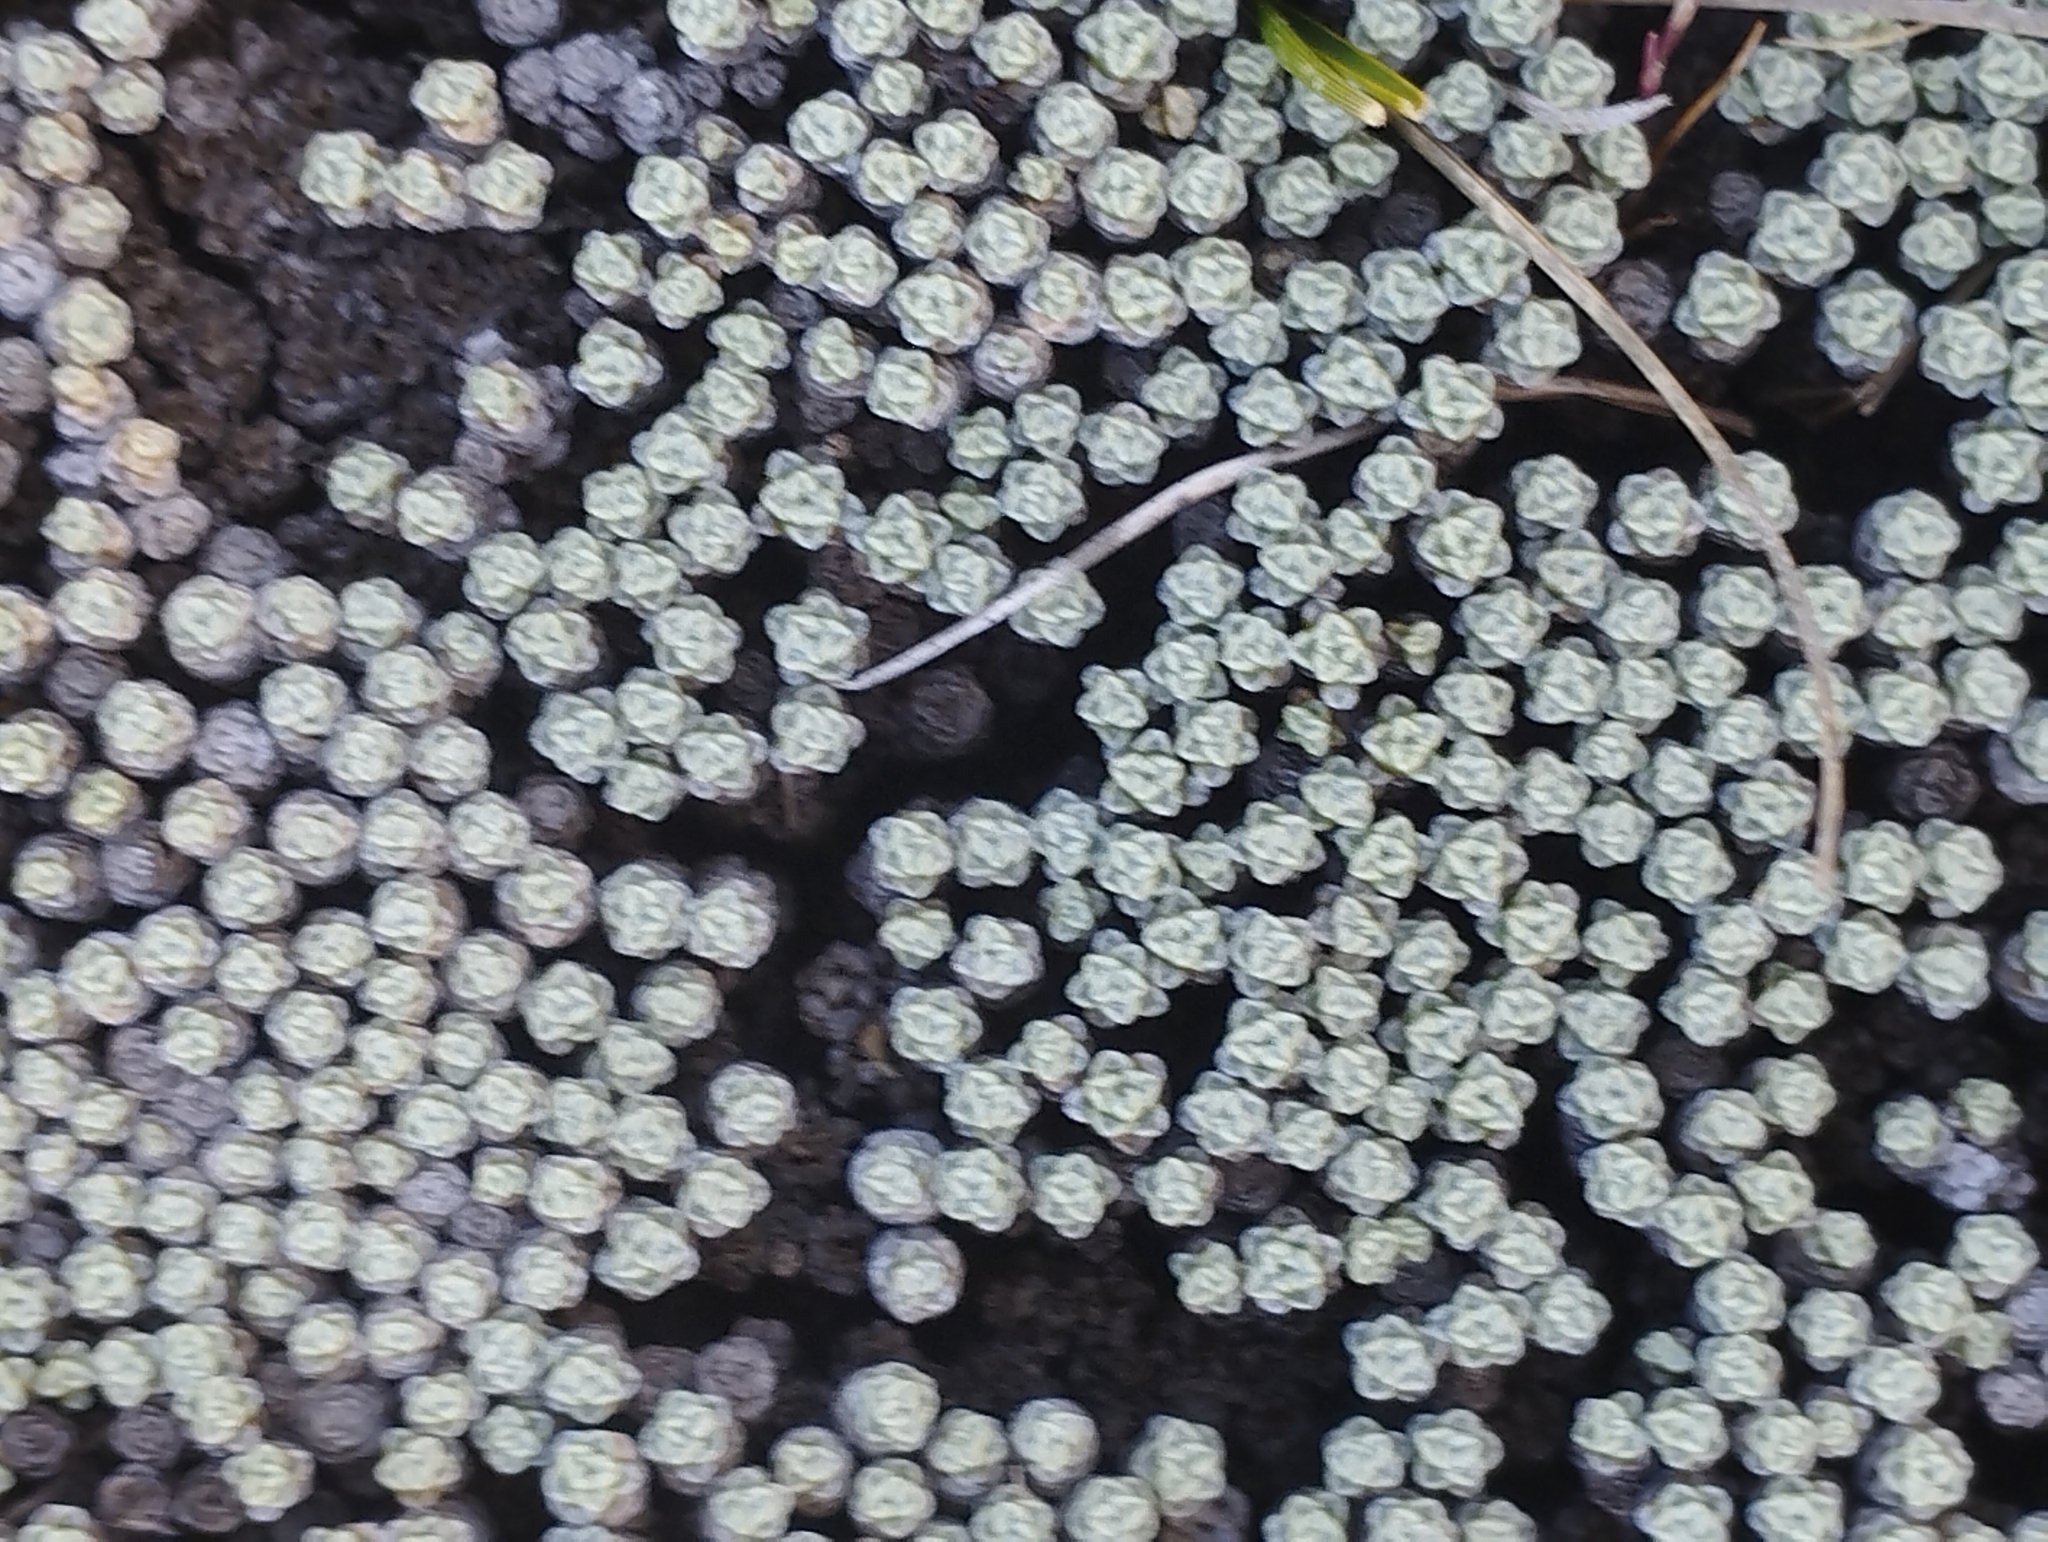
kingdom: Plantae
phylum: Tracheophyta
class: Magnoliopsida
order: Asterales
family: Asteraceae
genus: Raoulia
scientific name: Raoulia australis
